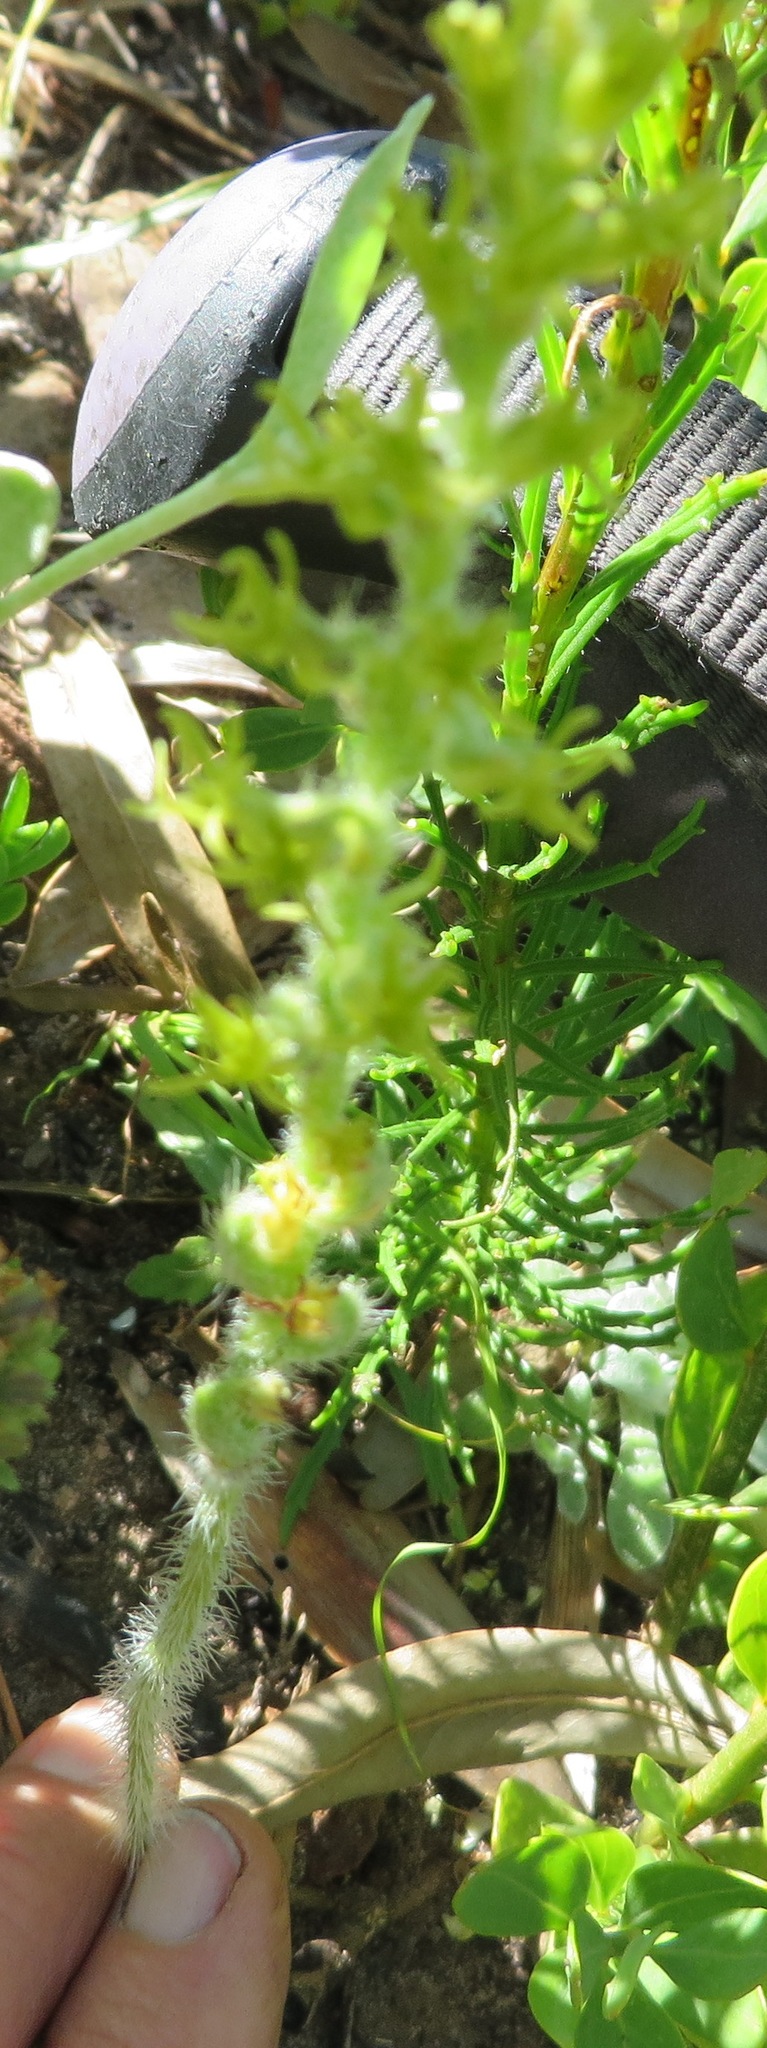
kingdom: Plantae
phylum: Tracheophyta
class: Liliopsida
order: Asparagales
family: Orchidaceae
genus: Holothrix
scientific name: Holothrix cernua
